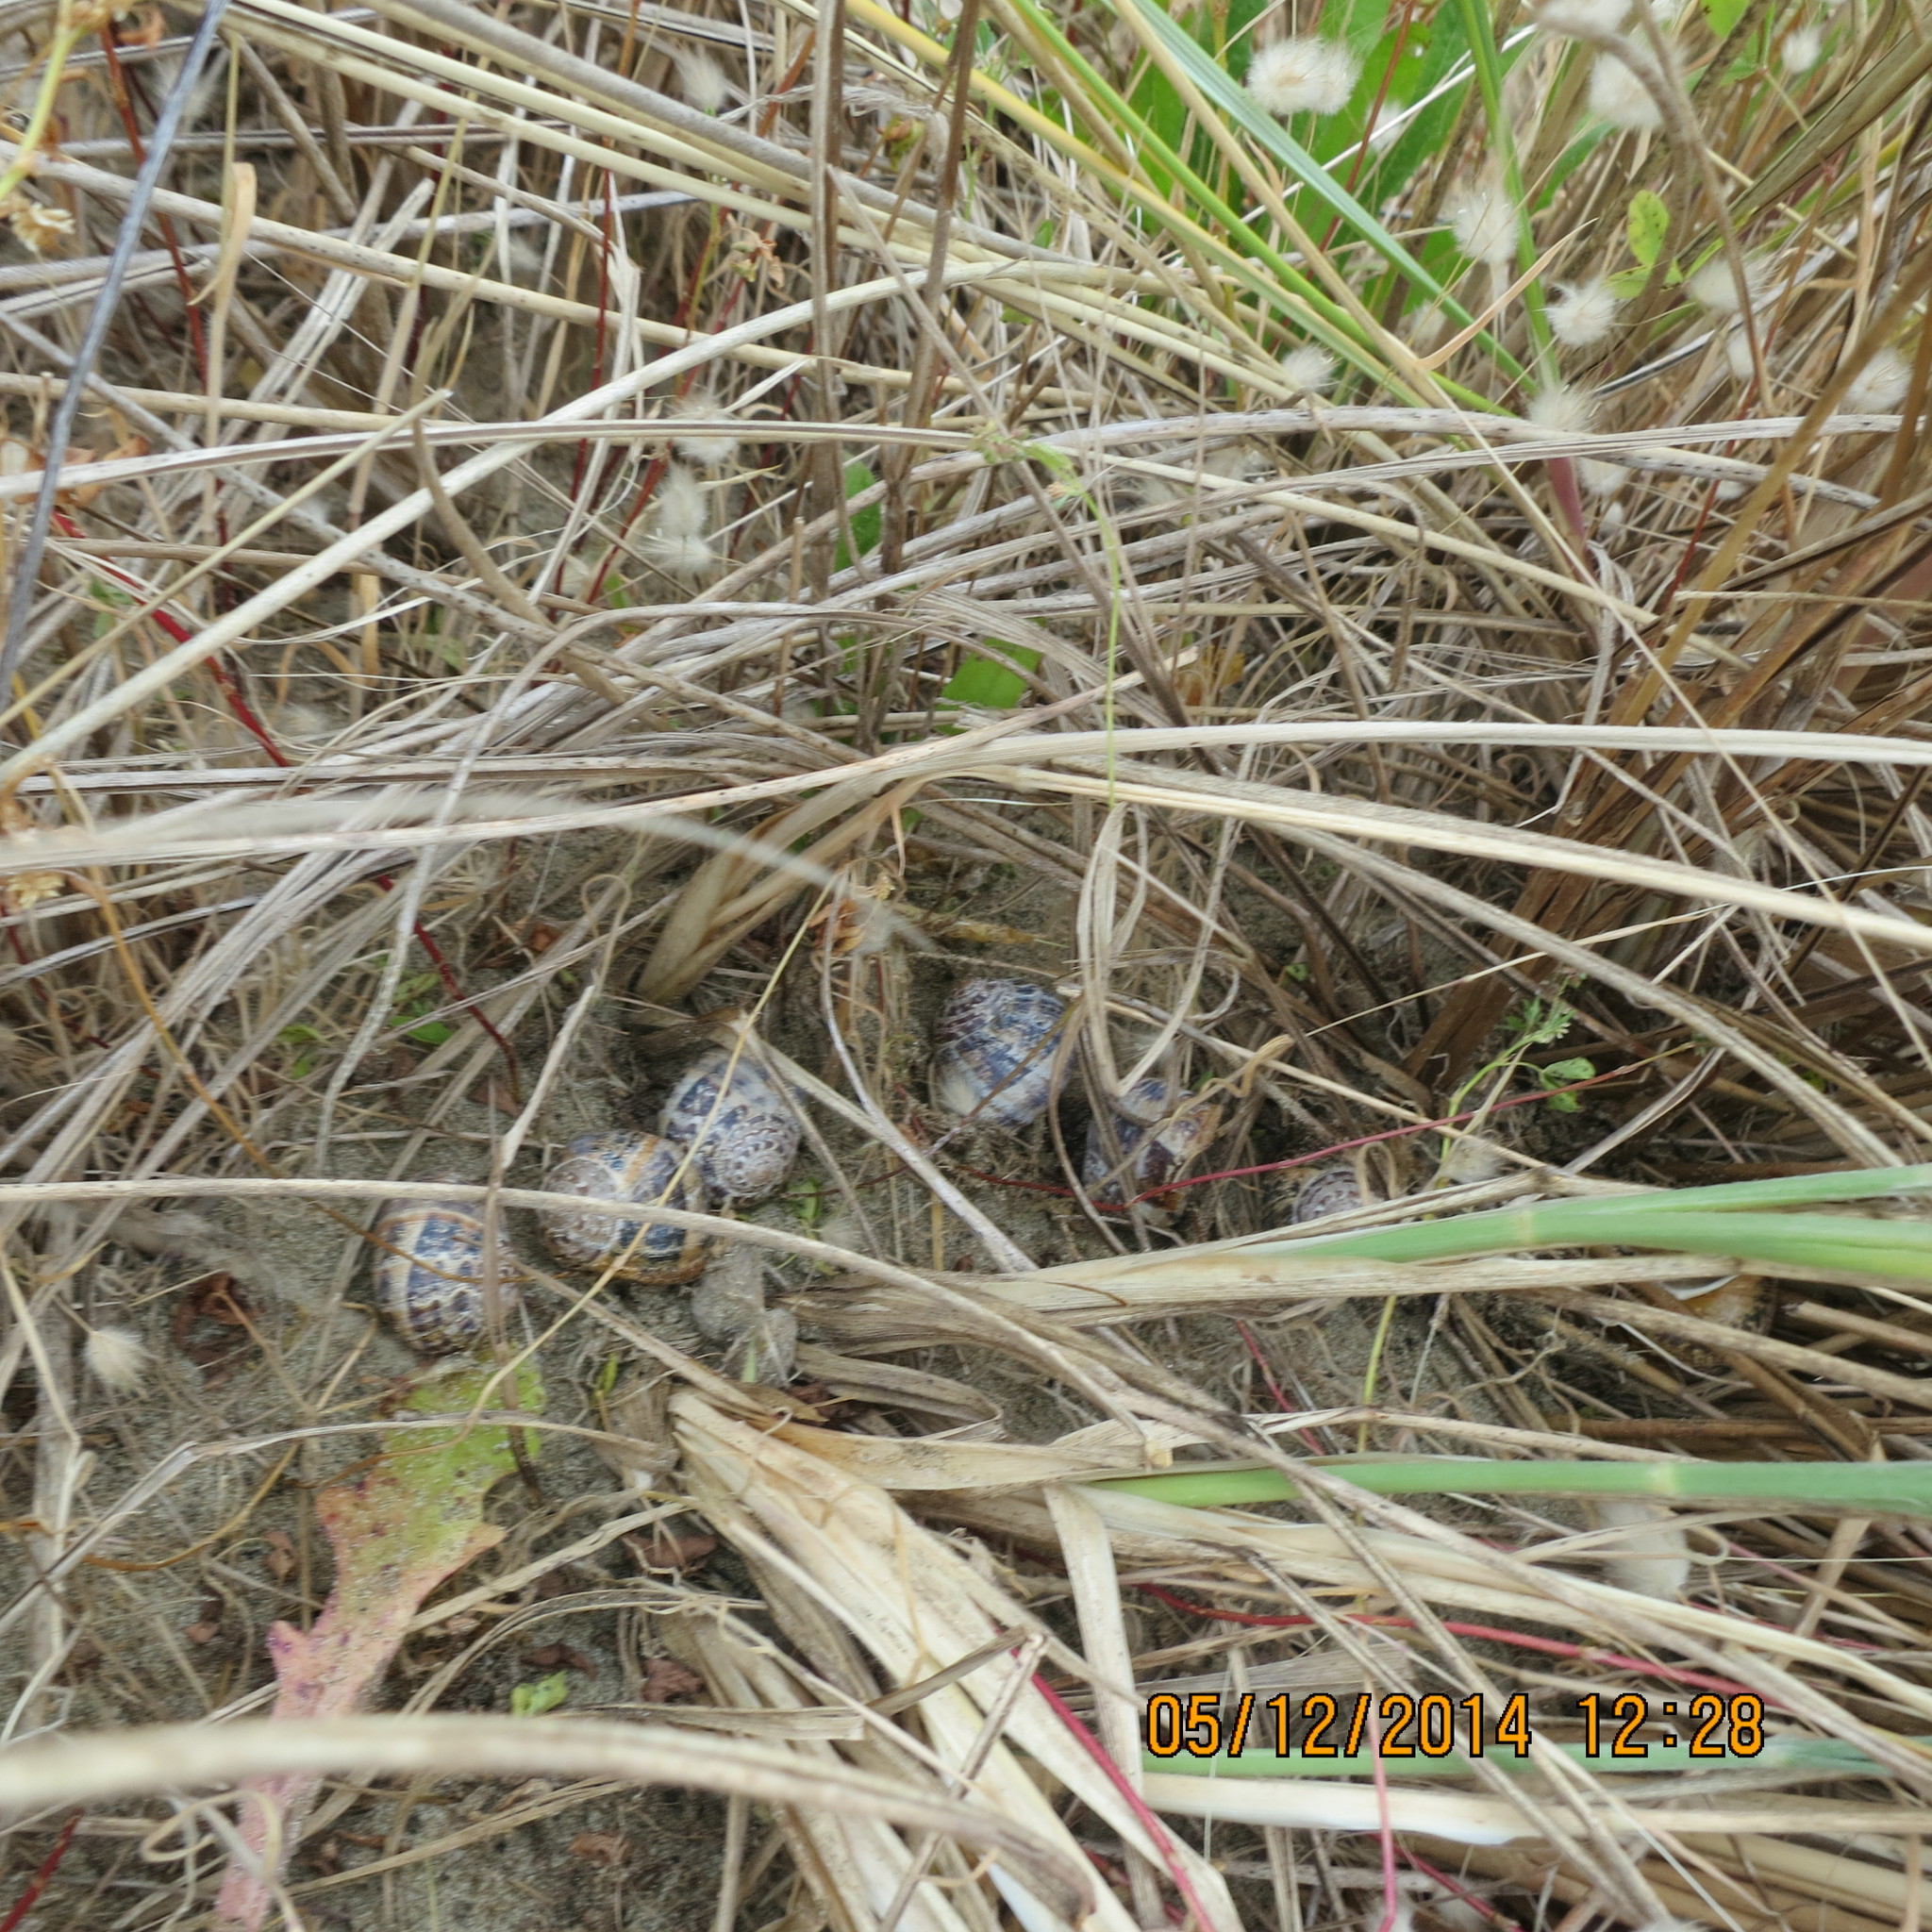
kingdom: Animalia
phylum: Mollusca
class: Gastropoda
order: Stylommatophora
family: Helicidae
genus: Cornu
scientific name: Cornu aspersum
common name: Brown garden snail
